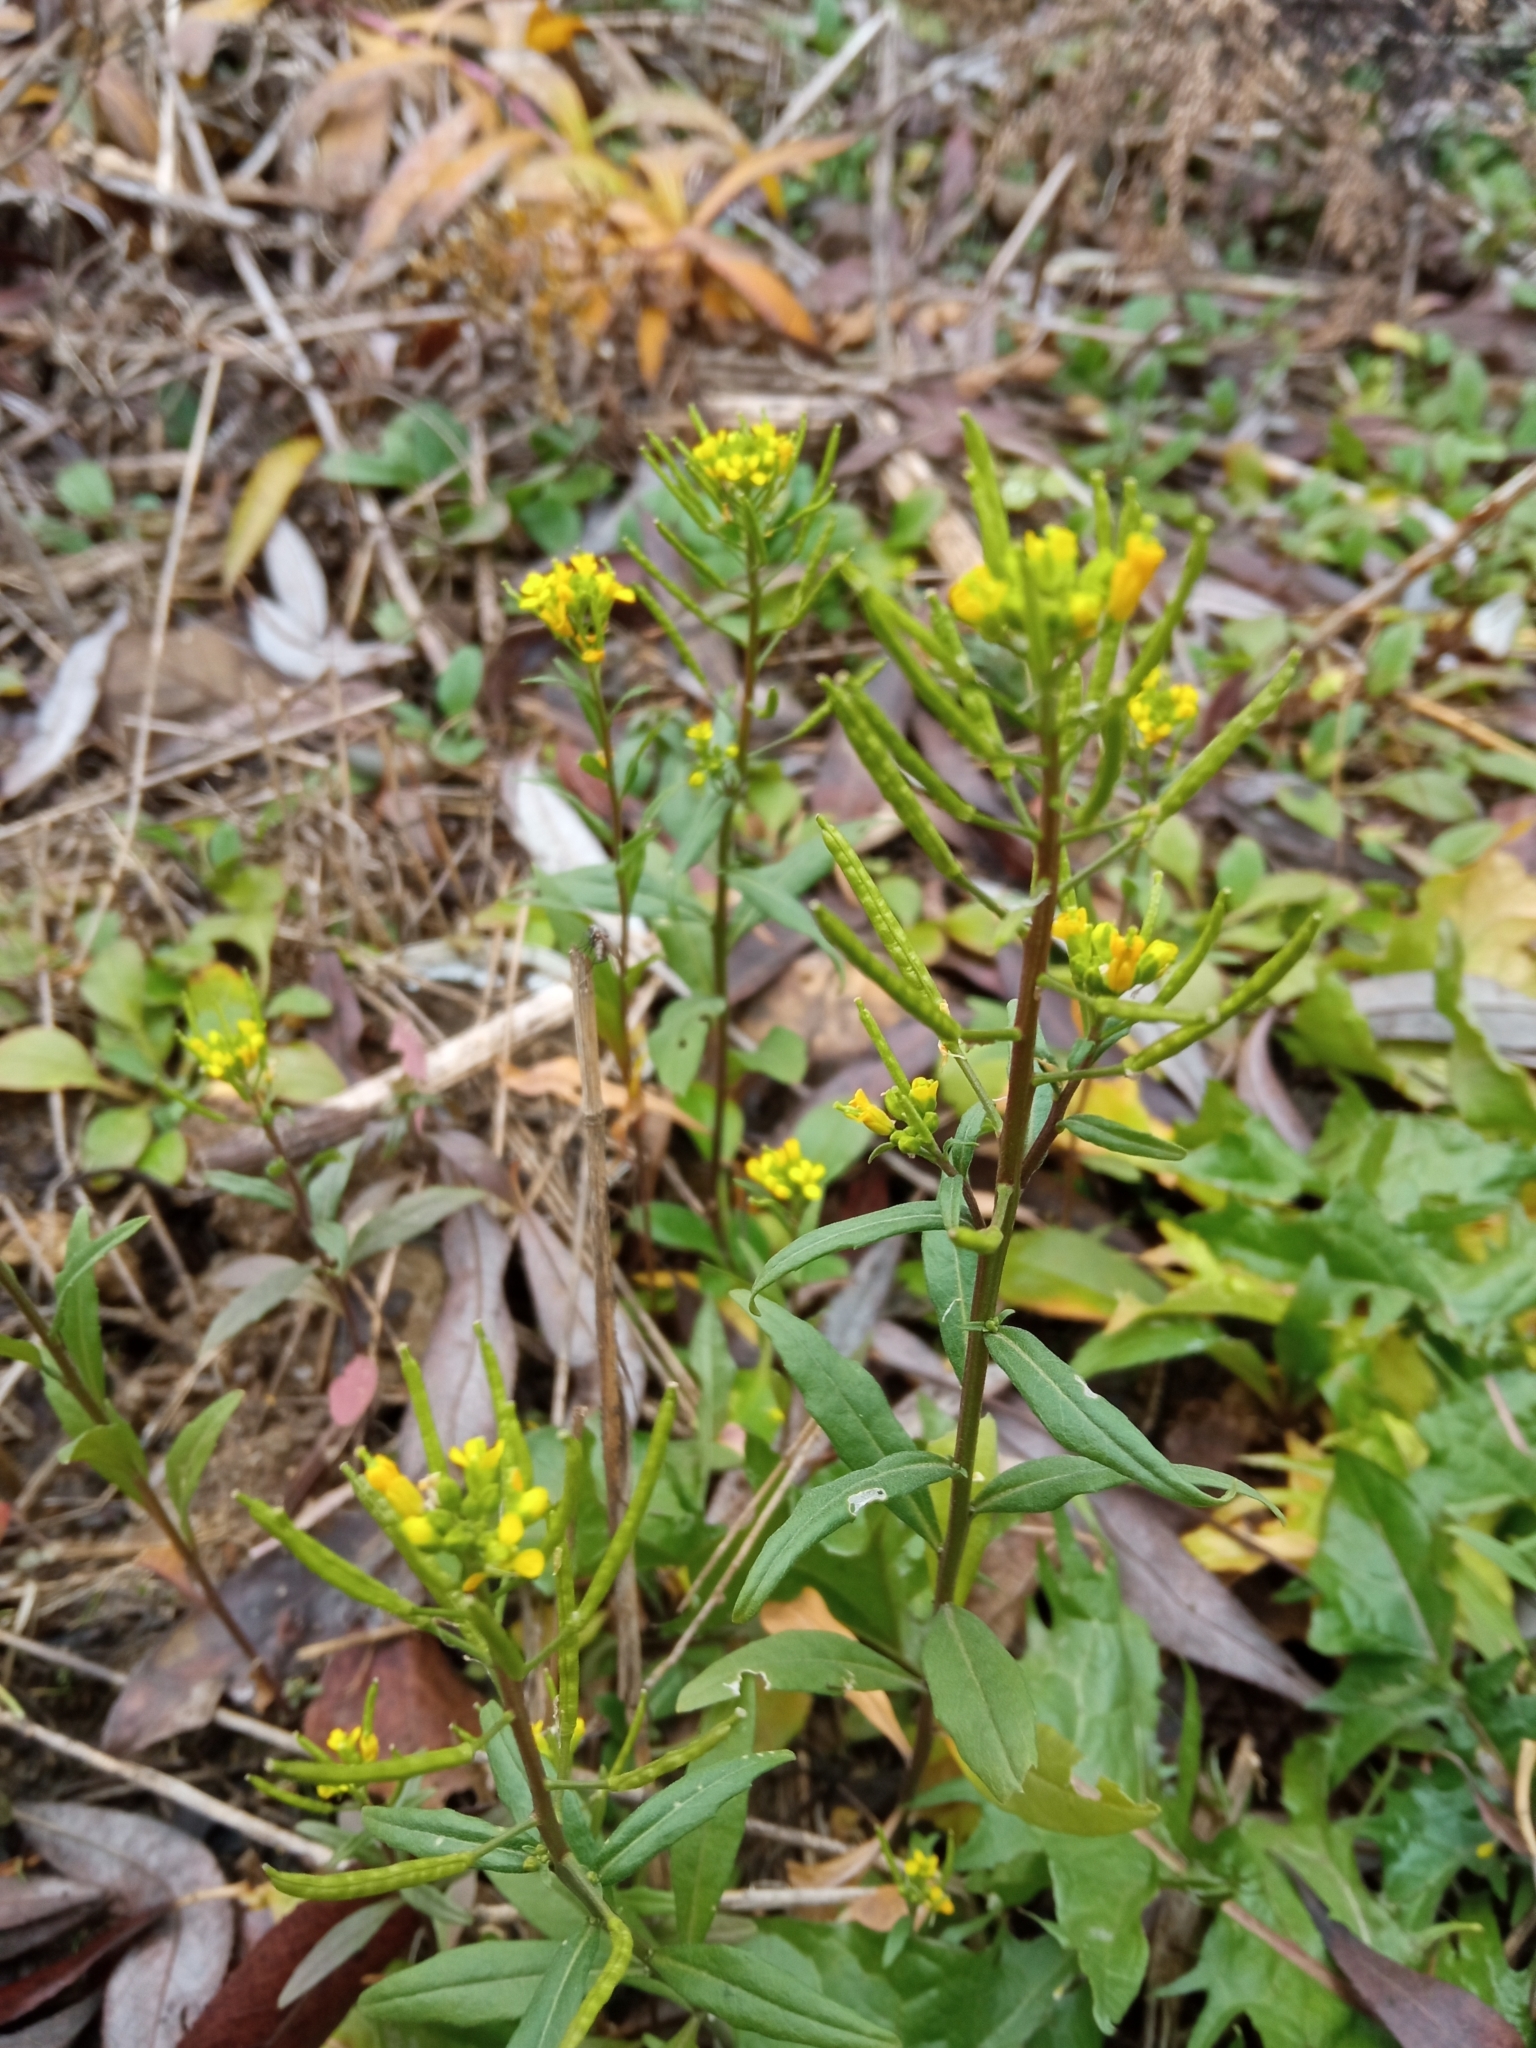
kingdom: Plantae
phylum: Tracheophyta
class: Magnoliopsida
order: Brassicales
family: Brassicaceae
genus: Erysimum
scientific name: Erysimum cheiranthoides
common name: Treacle mustard
